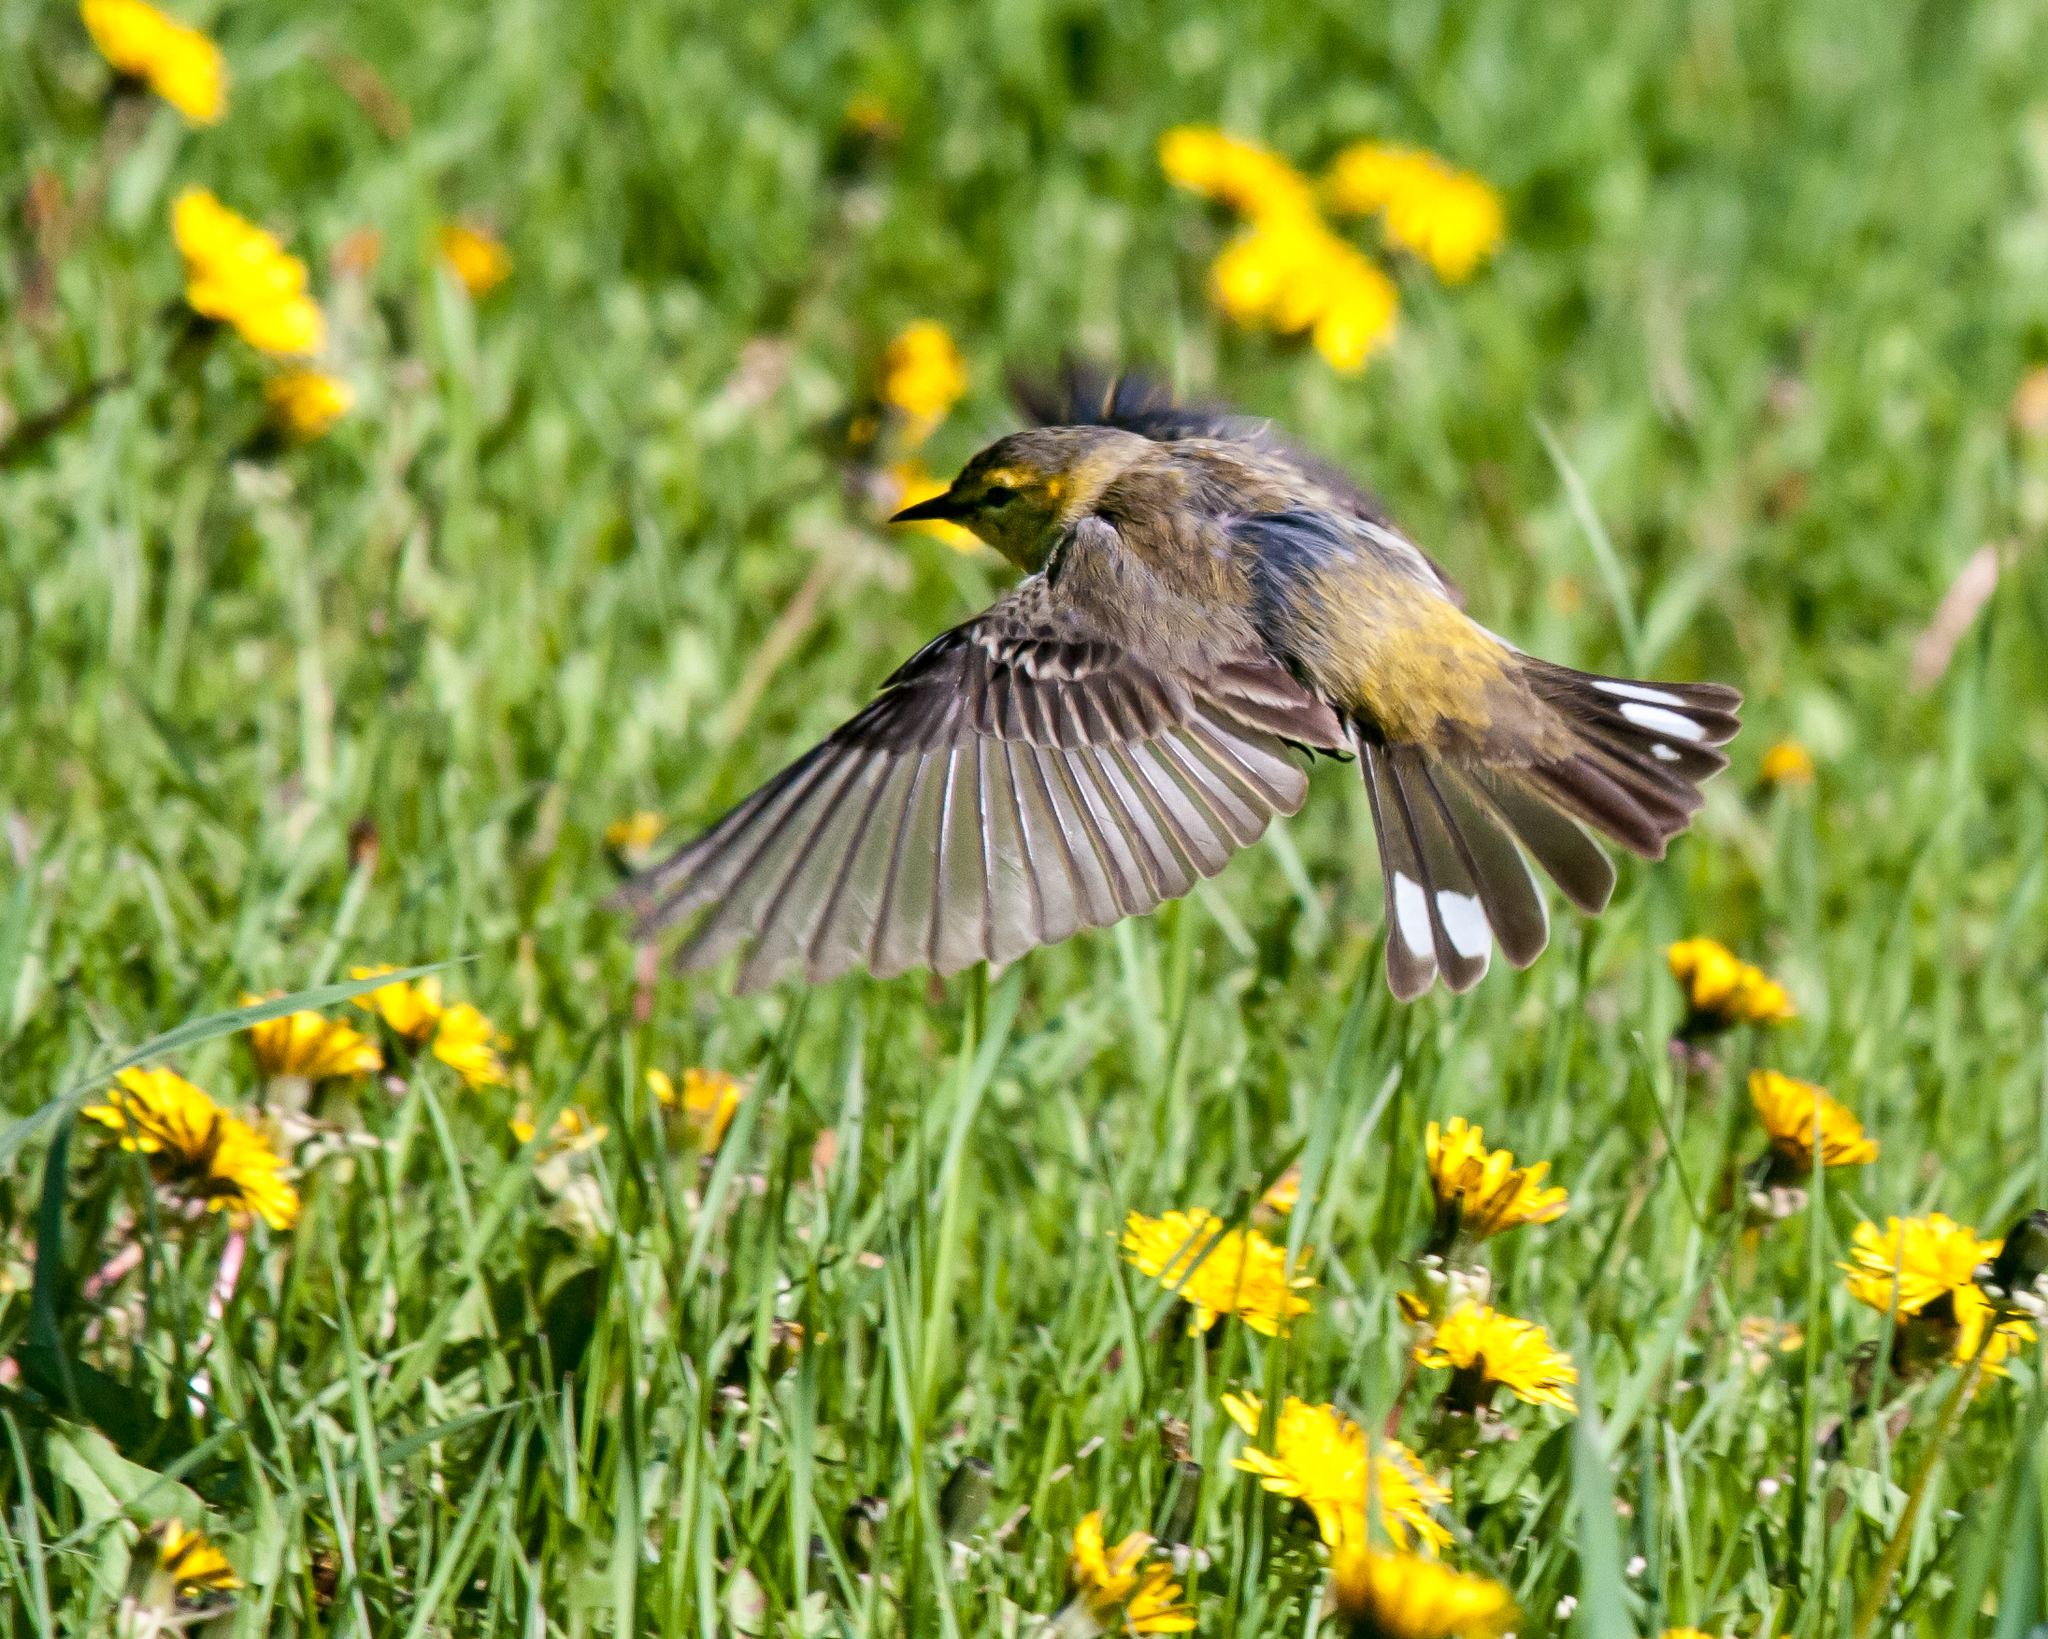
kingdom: Animalia
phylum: Chordata
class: Aves
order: Passeriformes
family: Parulidae
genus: Setophaga
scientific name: Setophaga tigrina
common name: Cape may warbler
